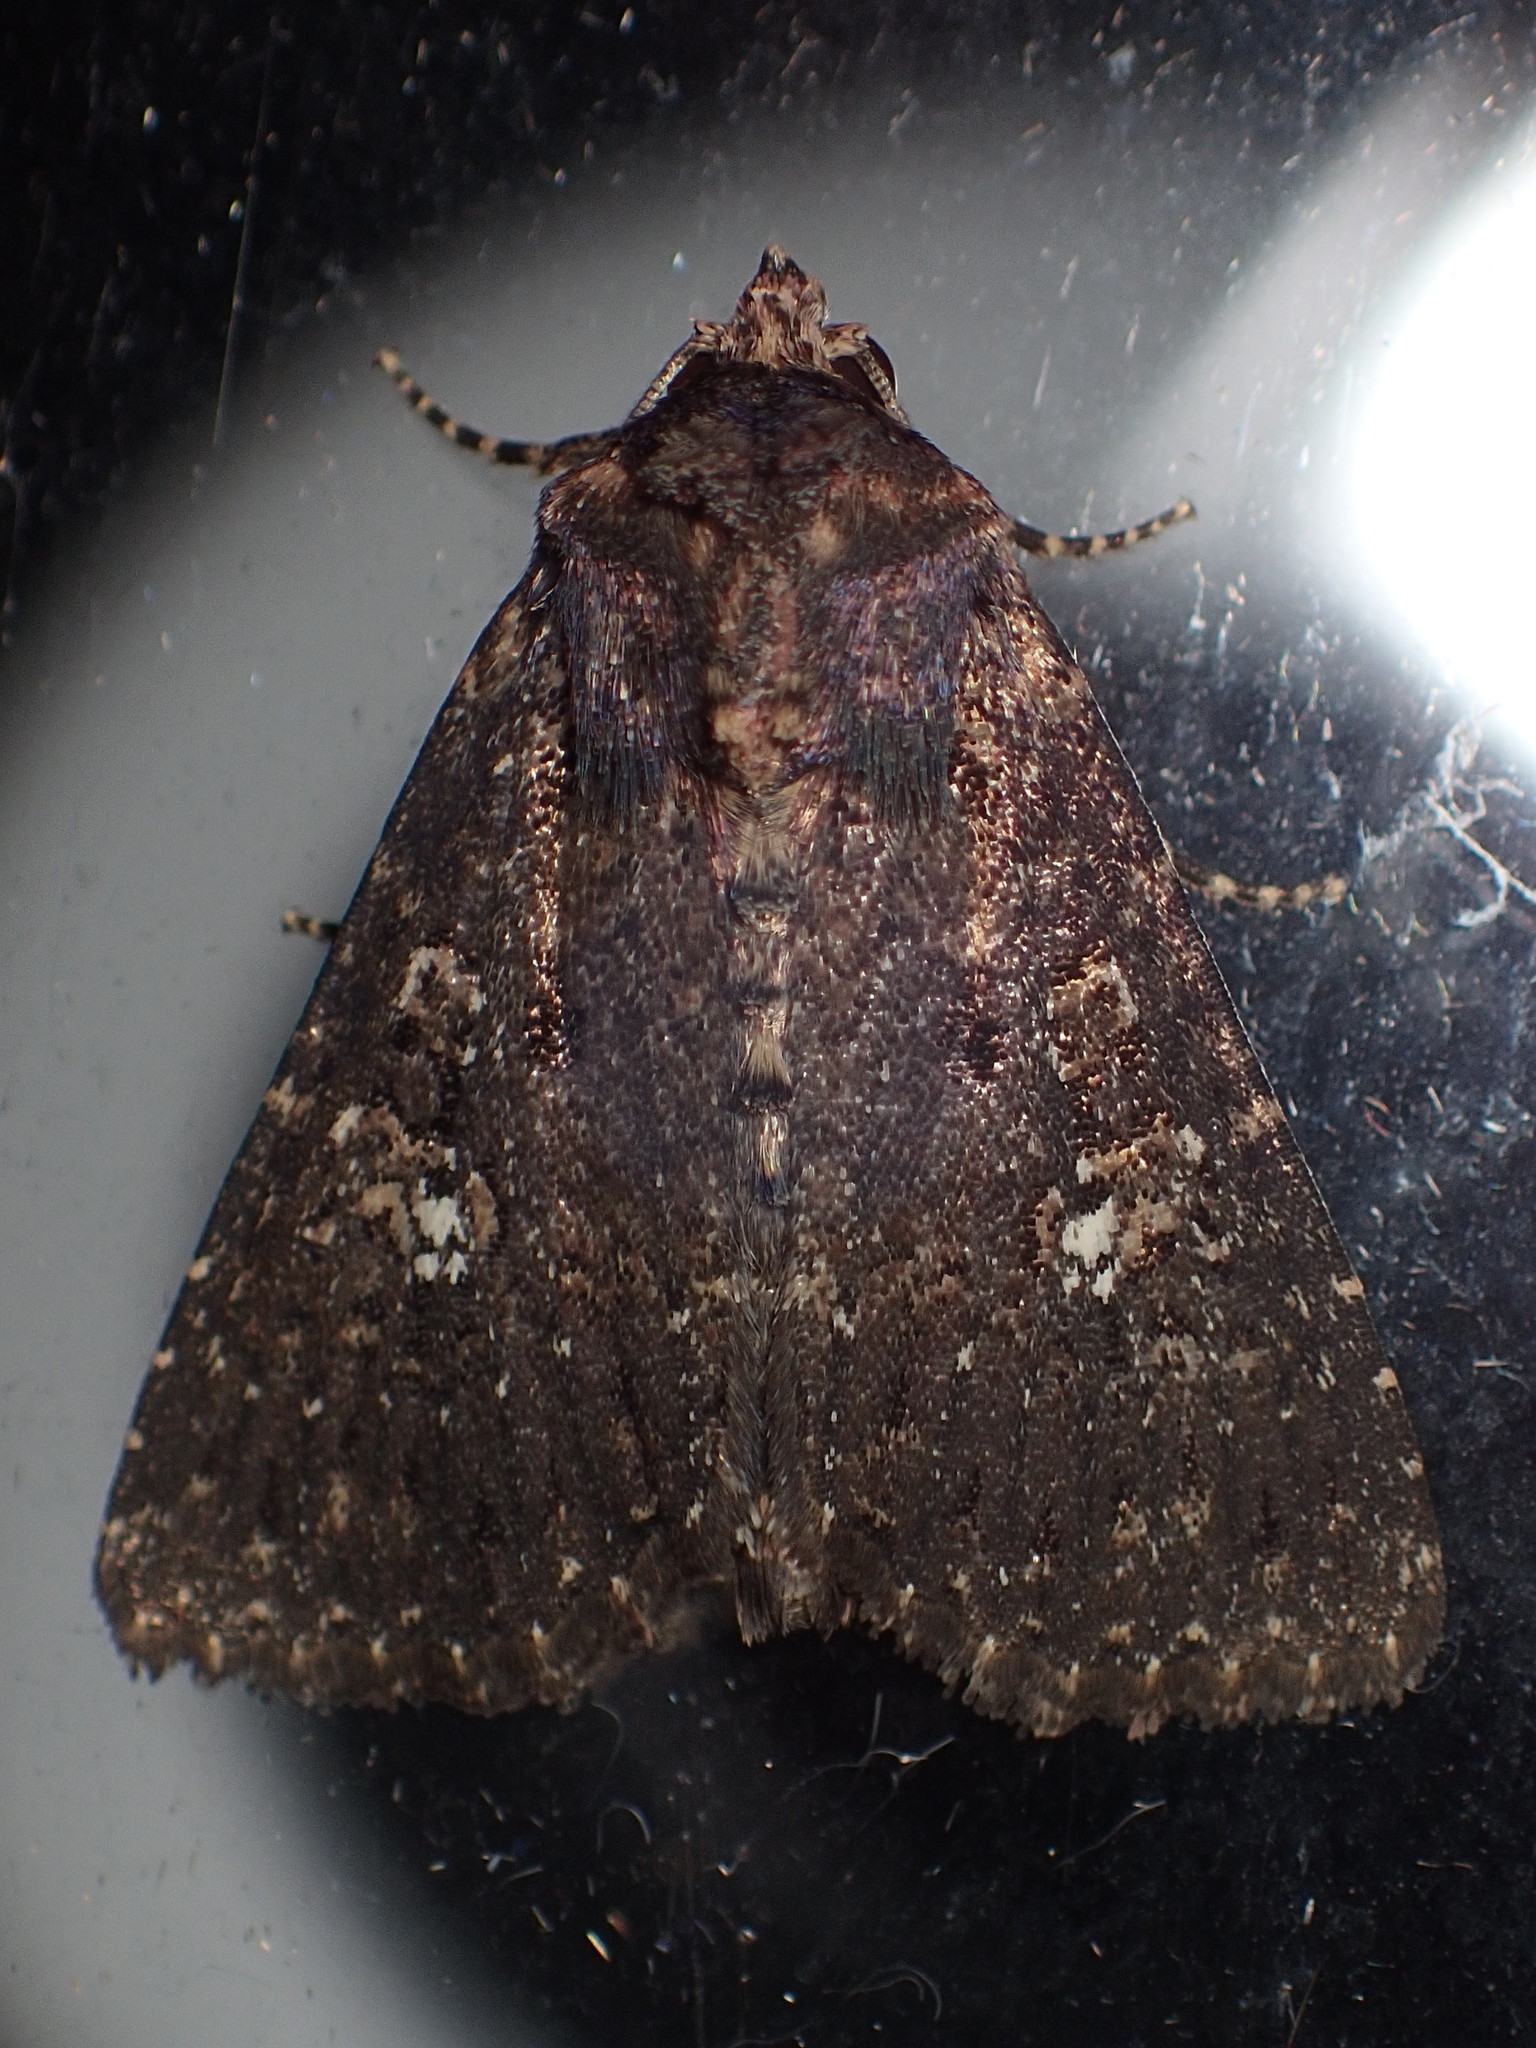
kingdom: Animalia
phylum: Arthropoda
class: Insecta
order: Lepidoptera
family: Noctuidae
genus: Condica
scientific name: Condica vecors
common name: Dusky groundling
